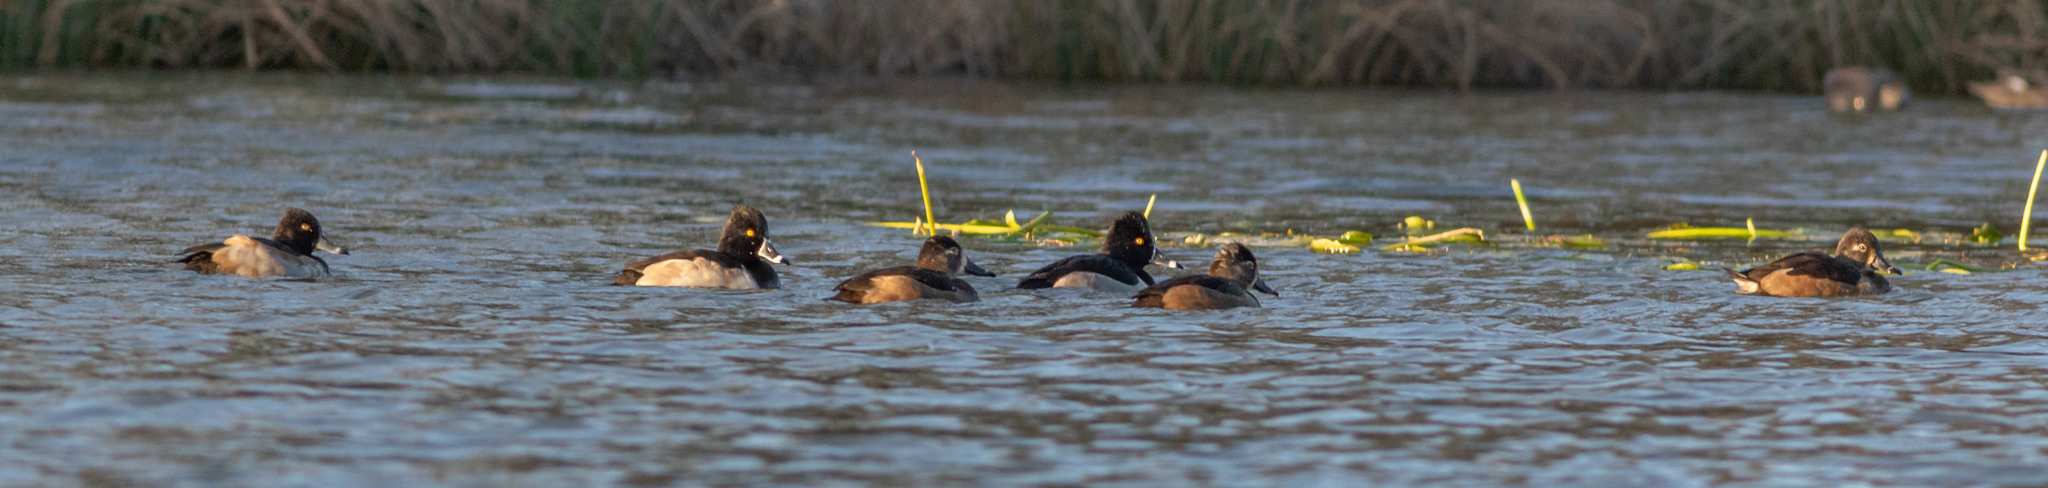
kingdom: Animalia
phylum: Chordata
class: Aves
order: Anseriformes
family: Anatidae
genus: Aythya
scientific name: Aythya collaris
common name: Ring-necked duck
